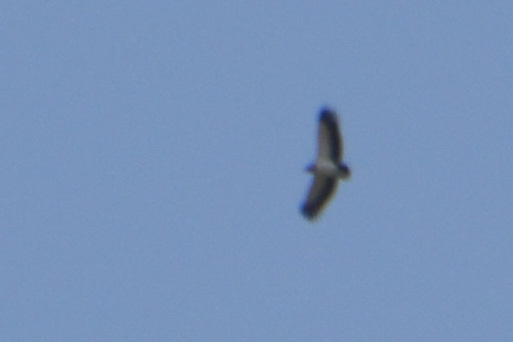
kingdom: Animalia
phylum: Chordata
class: Aves
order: Accipitriformes
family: Cathartidae
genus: Sarcoramphus
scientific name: Sarcoramphus papa
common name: King vulture
